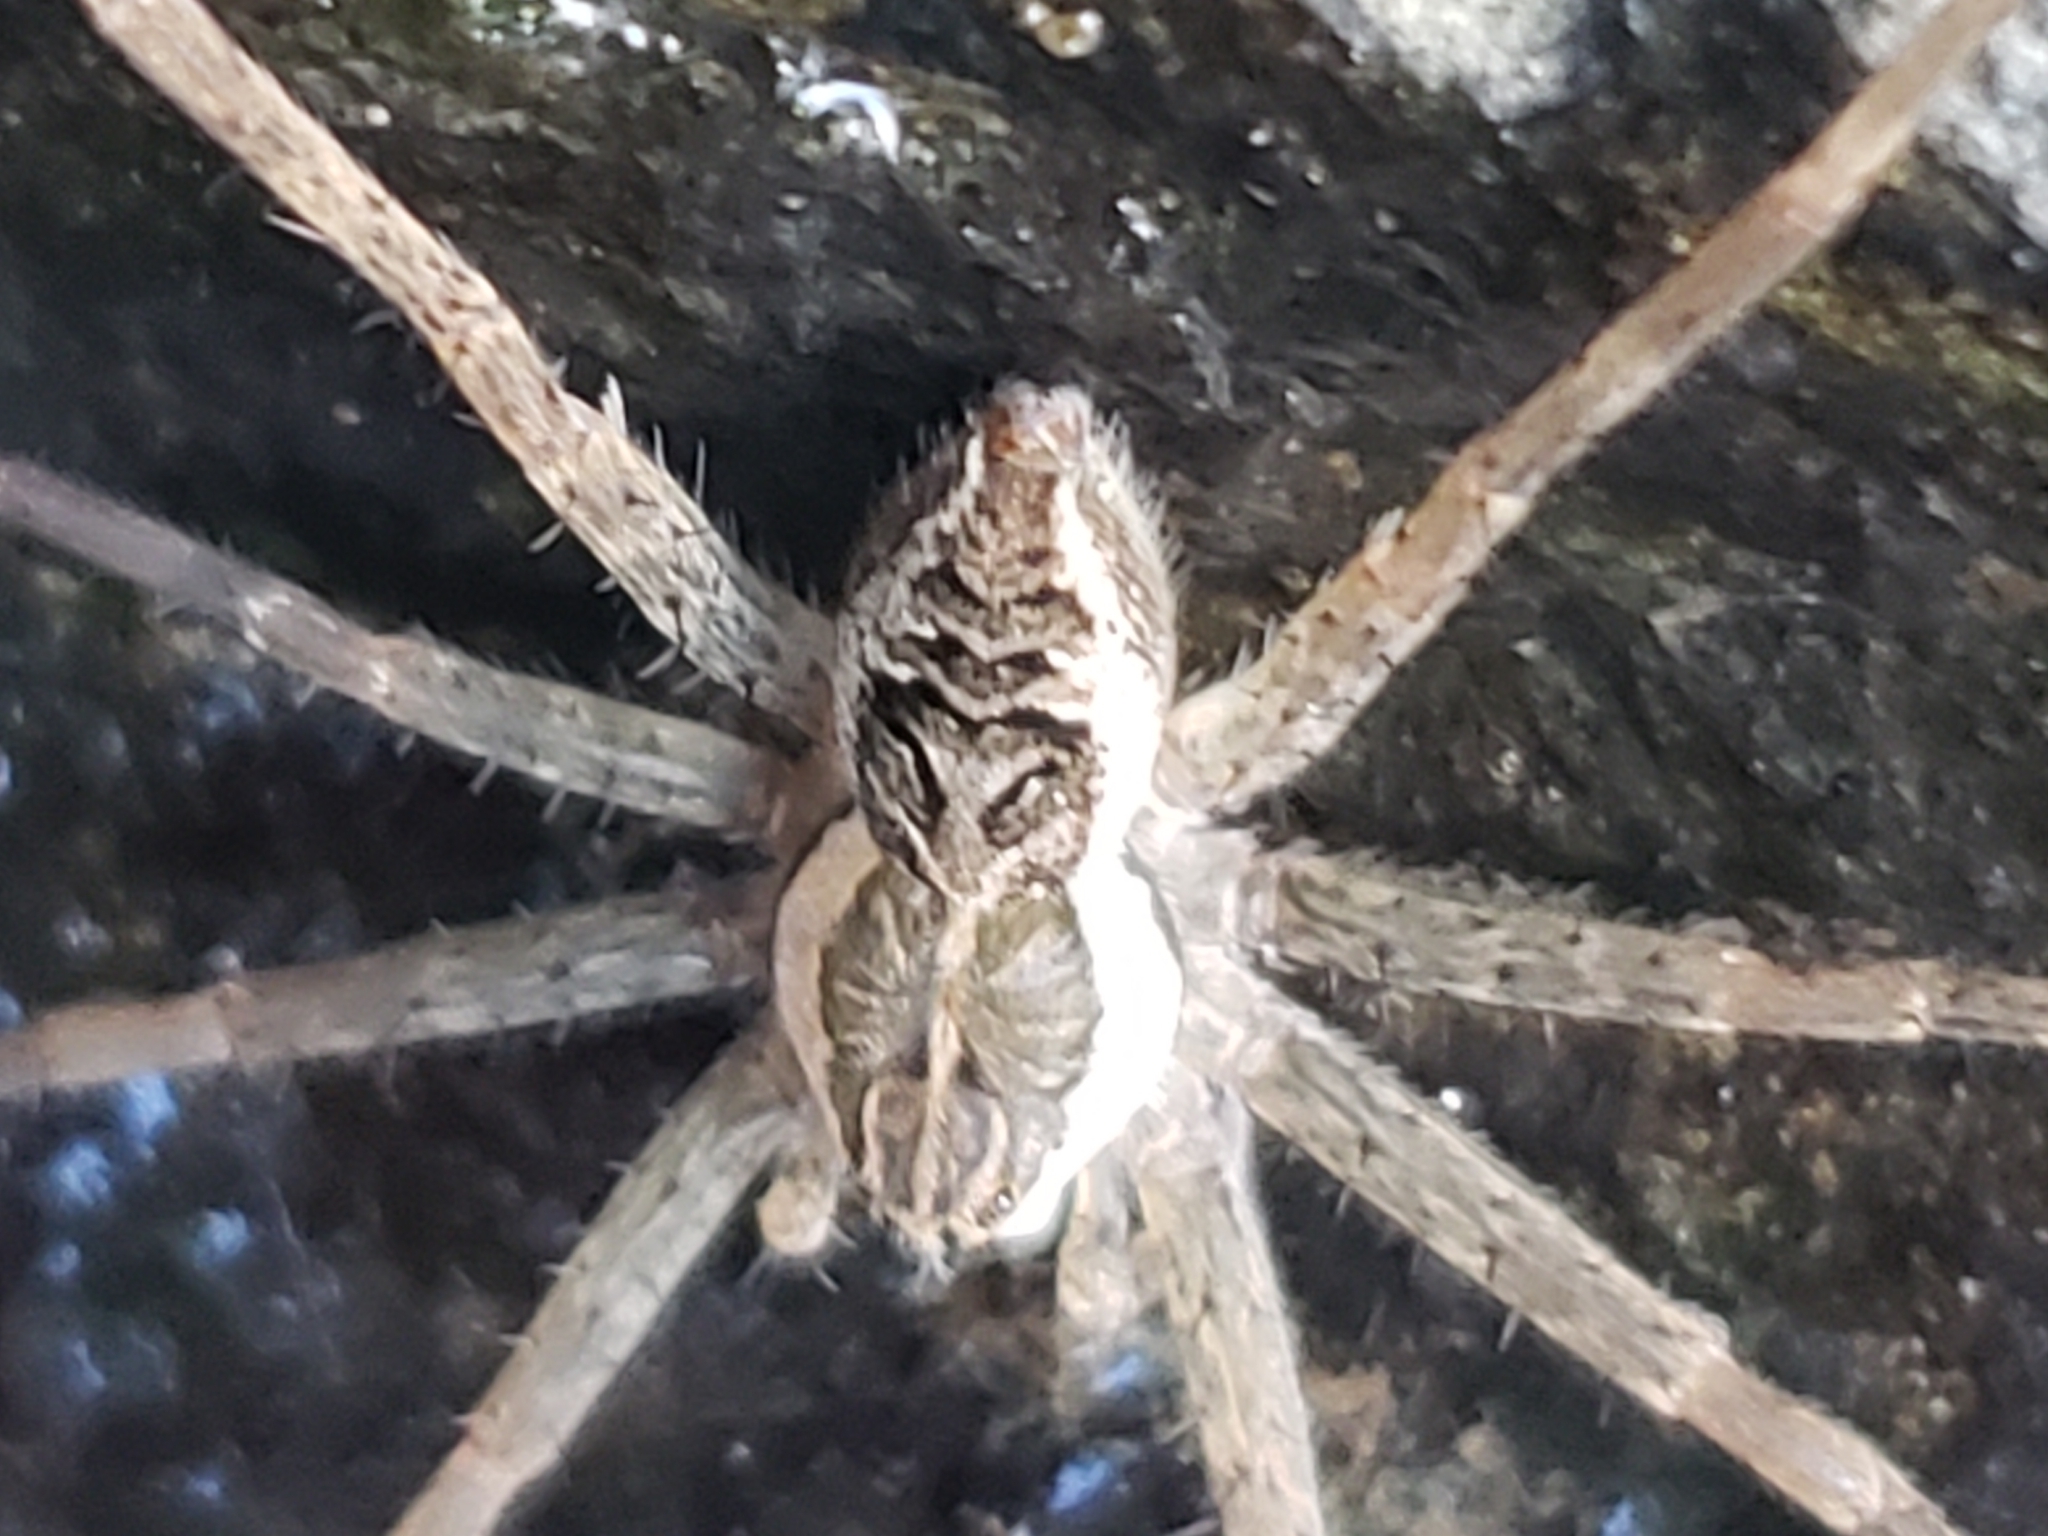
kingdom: Animalia
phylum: Arthropoda
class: Arachnida
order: Araneae
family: Pisauridae
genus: Dolomedes
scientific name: Dolomedes scriptus
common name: Striped fishing spider
